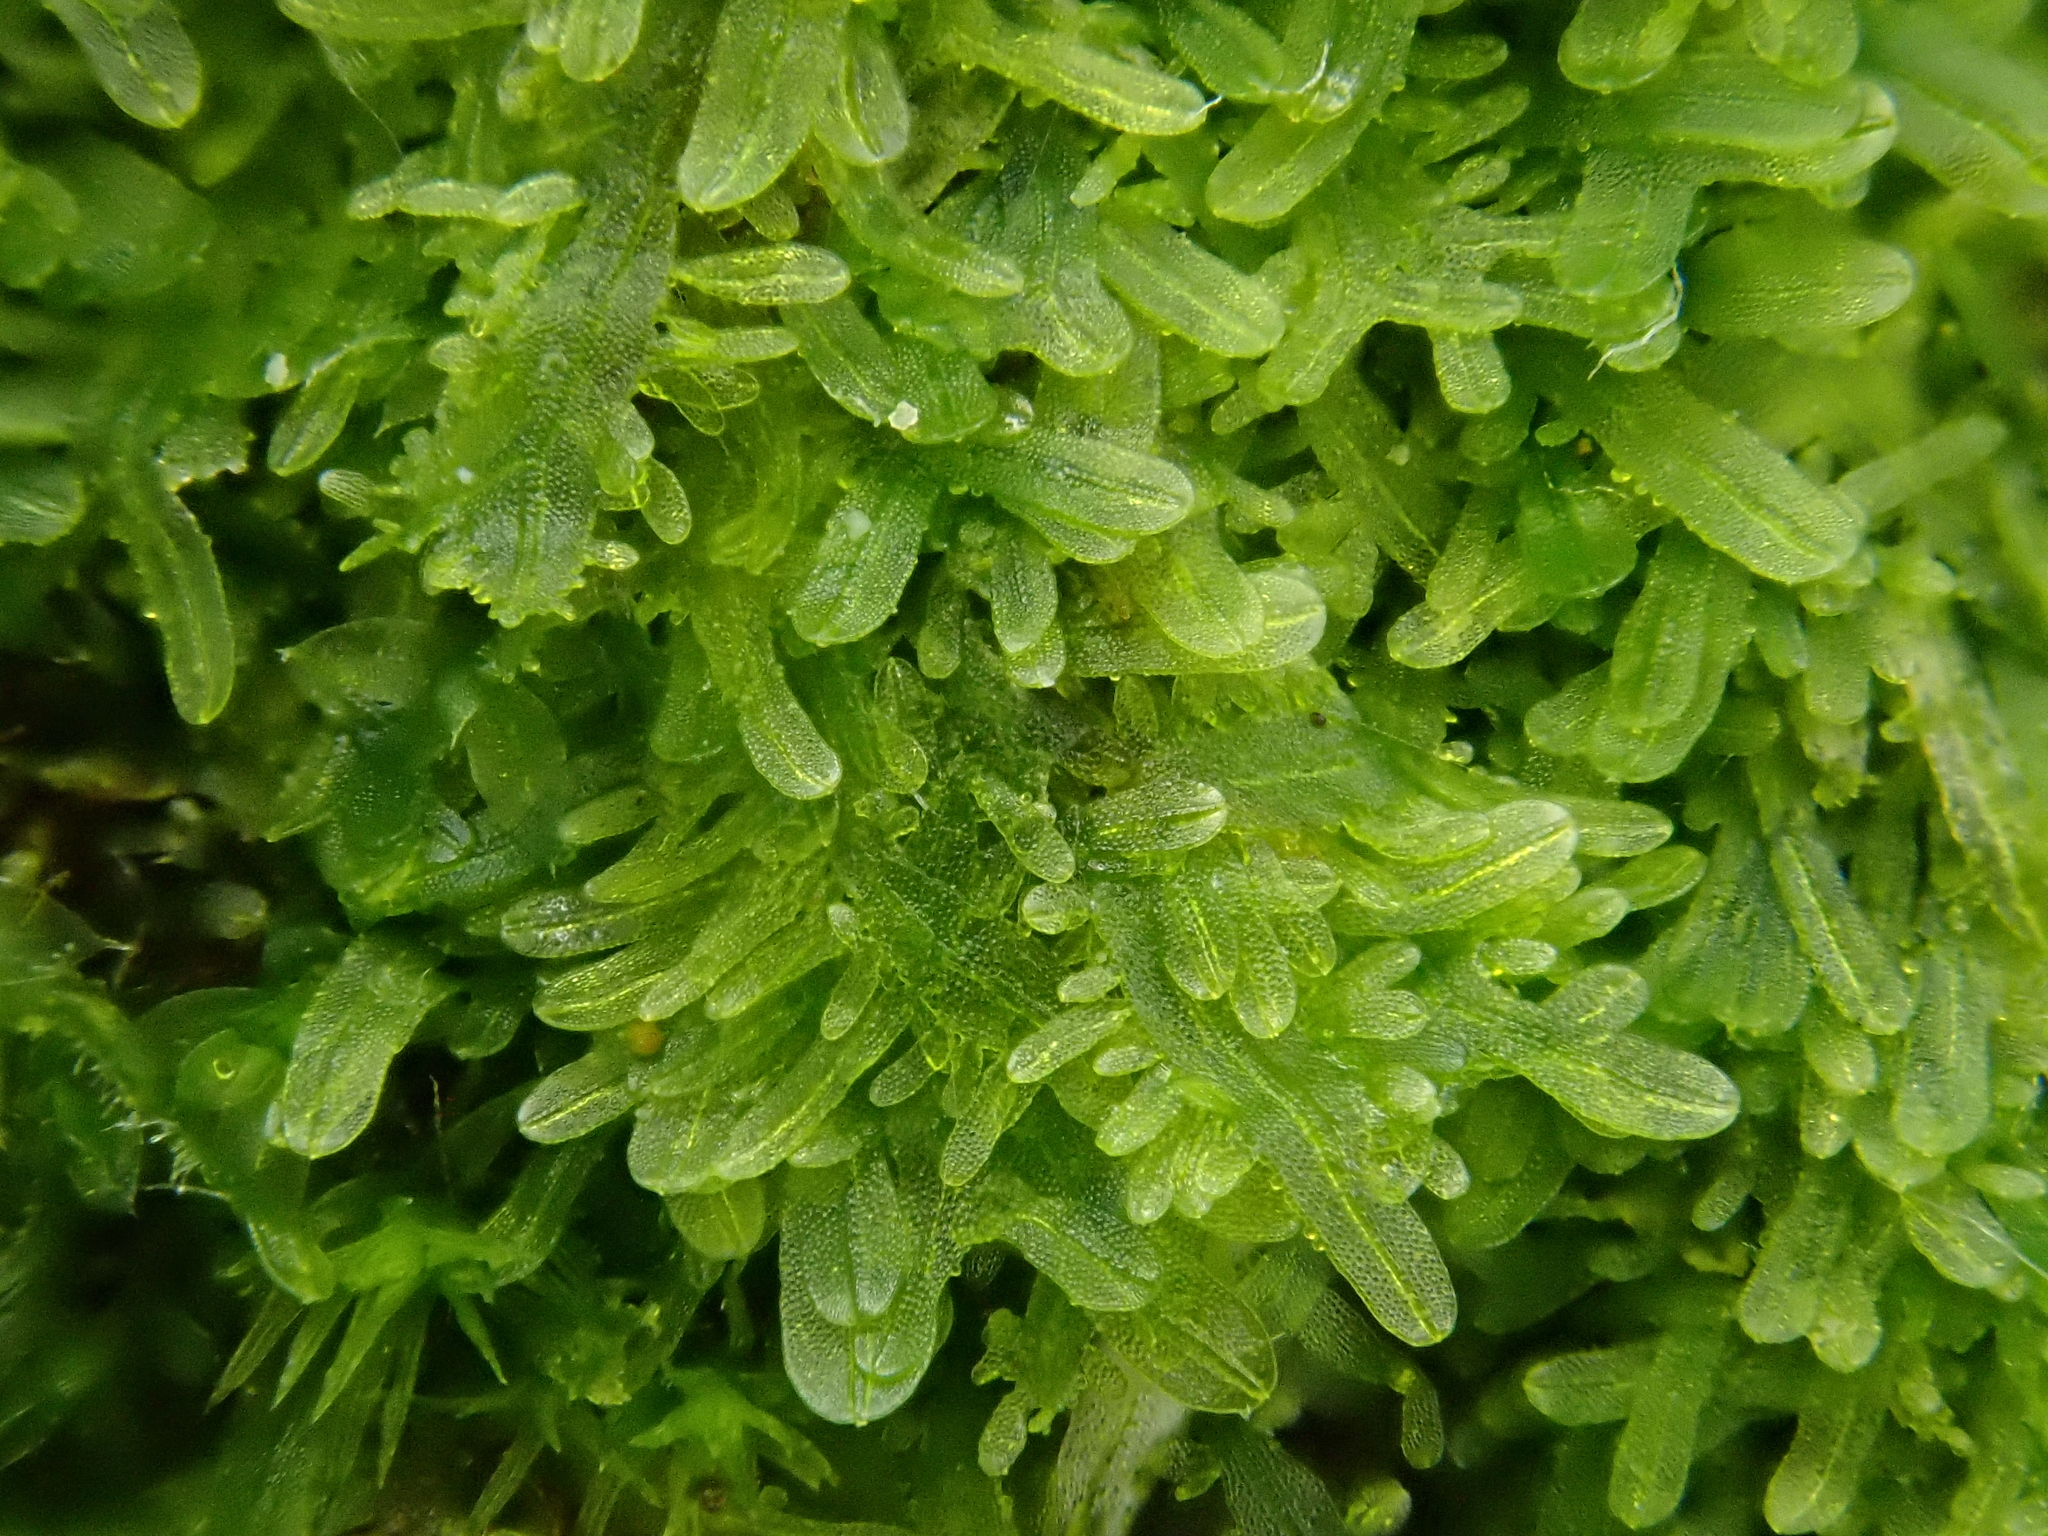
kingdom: Plantae
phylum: Marchantiophyta
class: Jungermanniopsida
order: Metzgeriales
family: Metzgeriaceae
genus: Metzgeria
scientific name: Metzgeria furcata
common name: Forked veilwort
